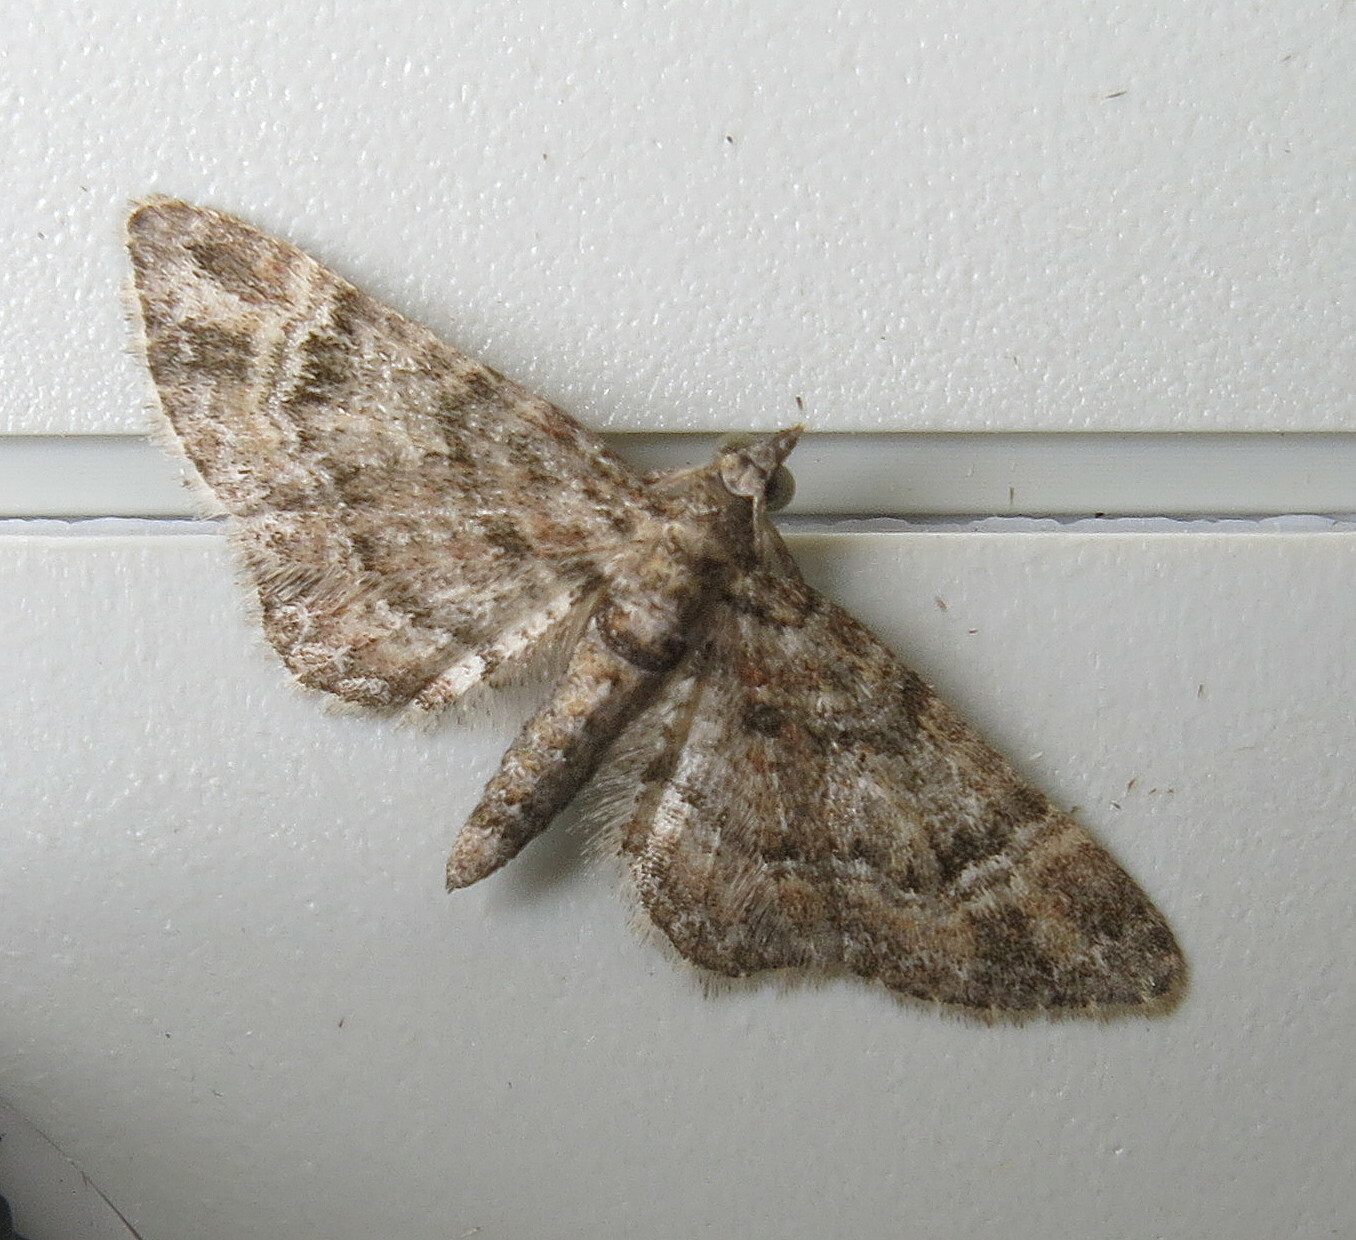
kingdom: Animalia
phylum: Arthropoda
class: Insecta
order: Lepidoptera
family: Geometridae
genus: Gymnoscelis
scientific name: Gymnoscelis rufifasciata
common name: Double-striped pug
